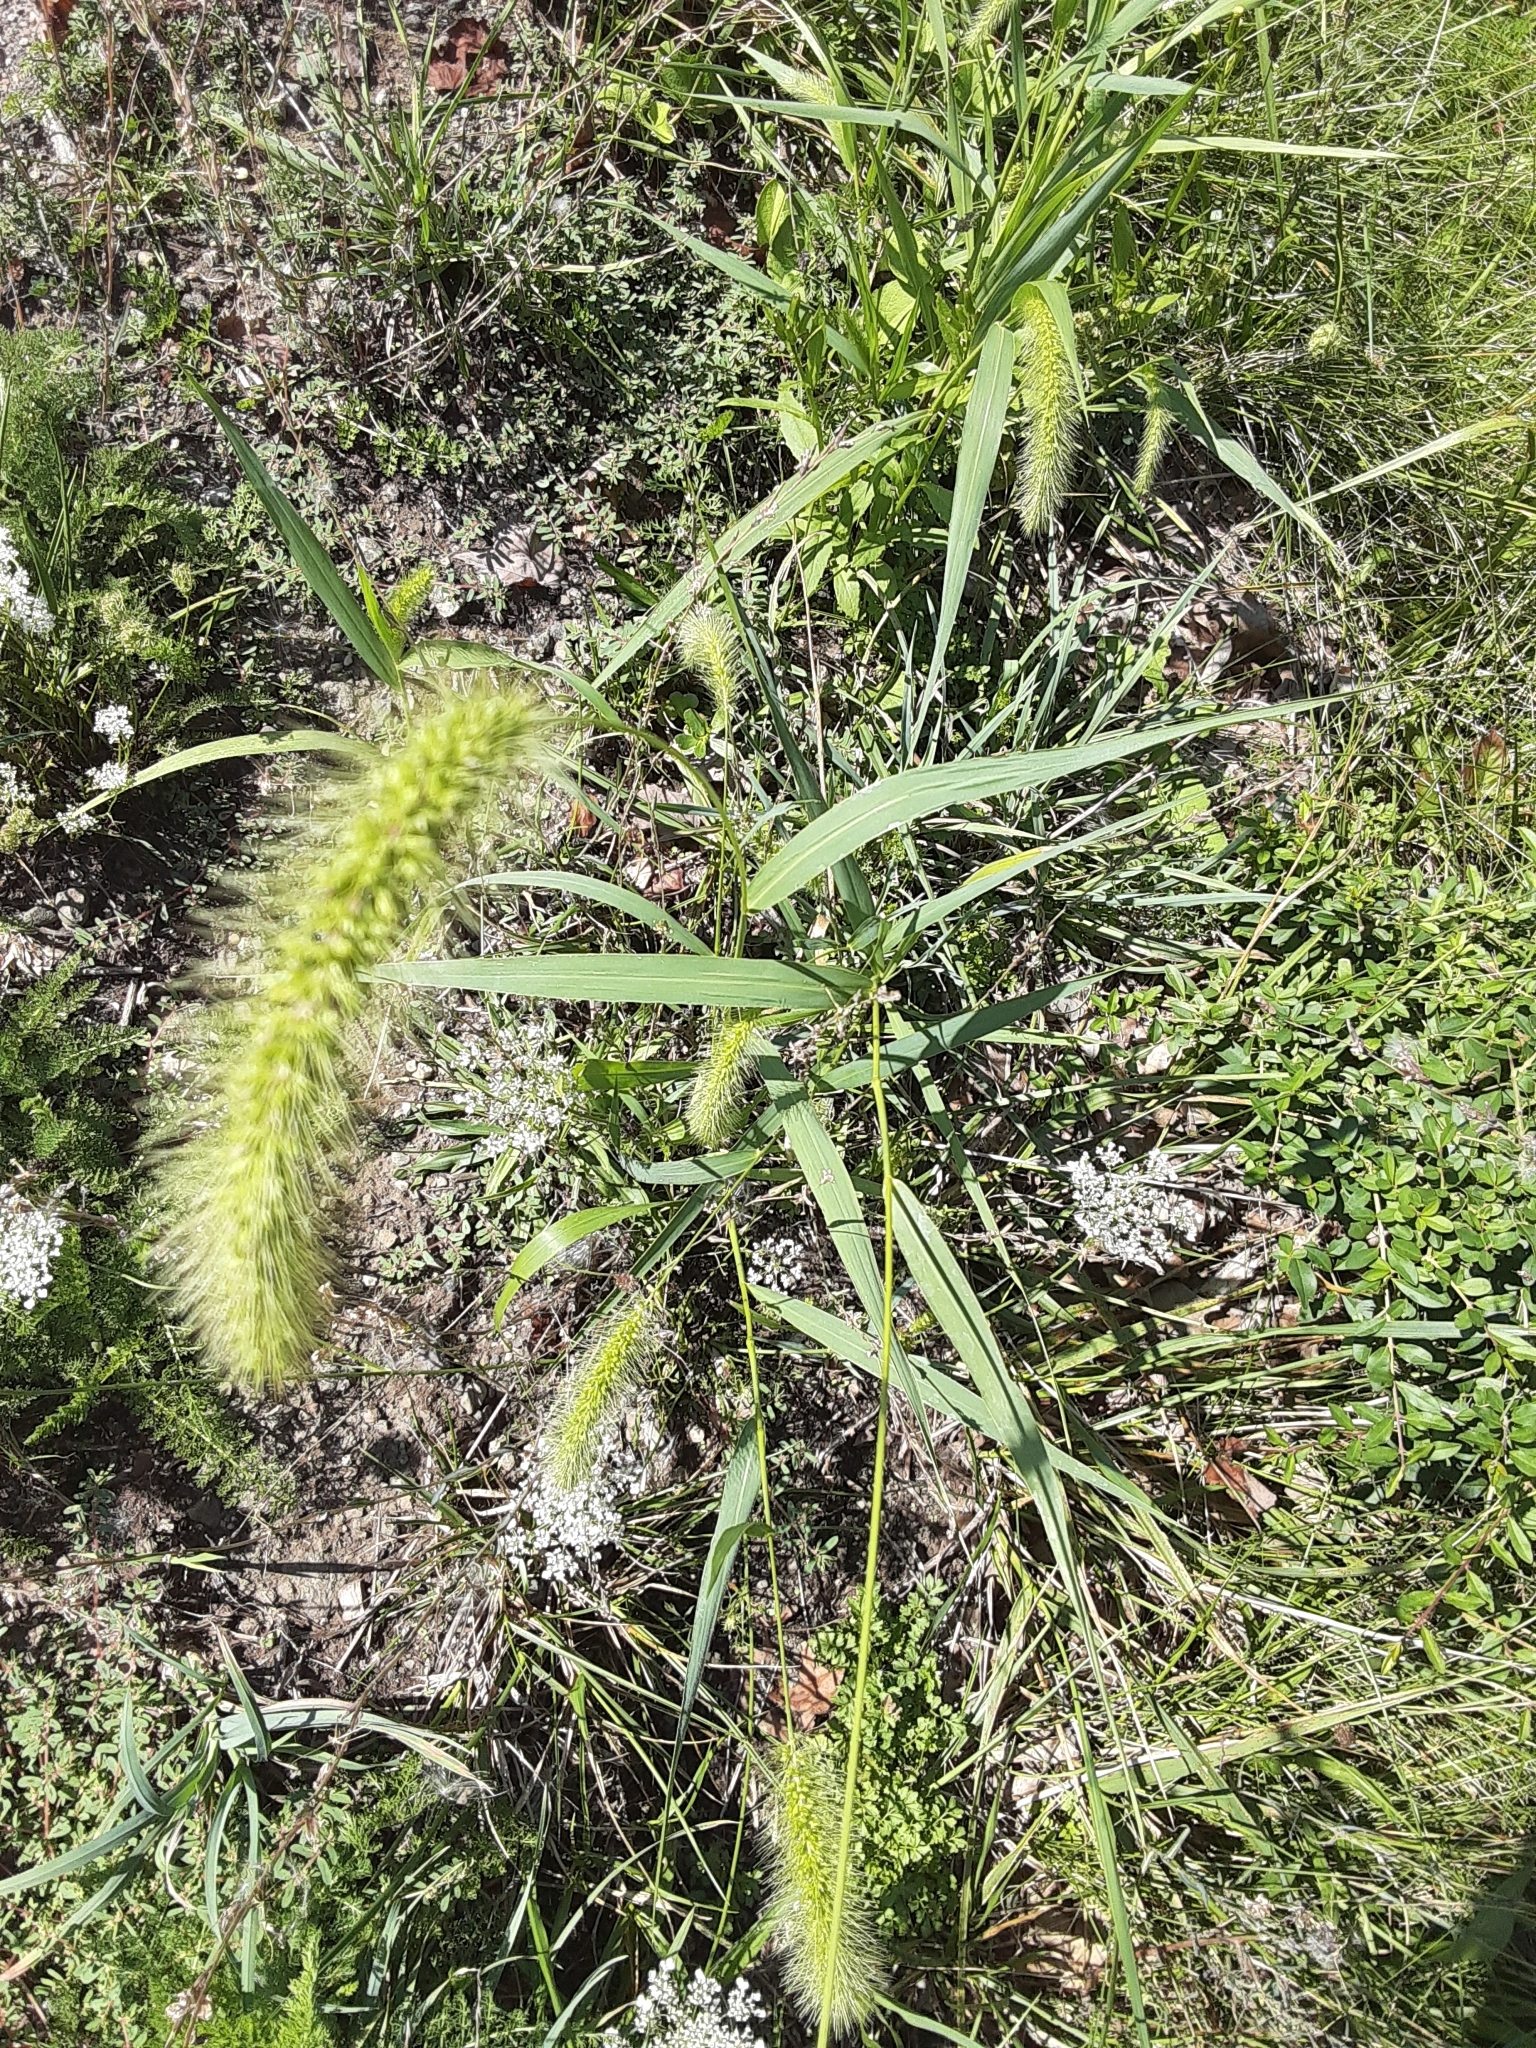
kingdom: Plantae
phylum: Tracheophyta
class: Liliopsida
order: Poales
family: Poaceae
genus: Setaria
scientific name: Setaria faberi
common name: Nodding bristle-grass
